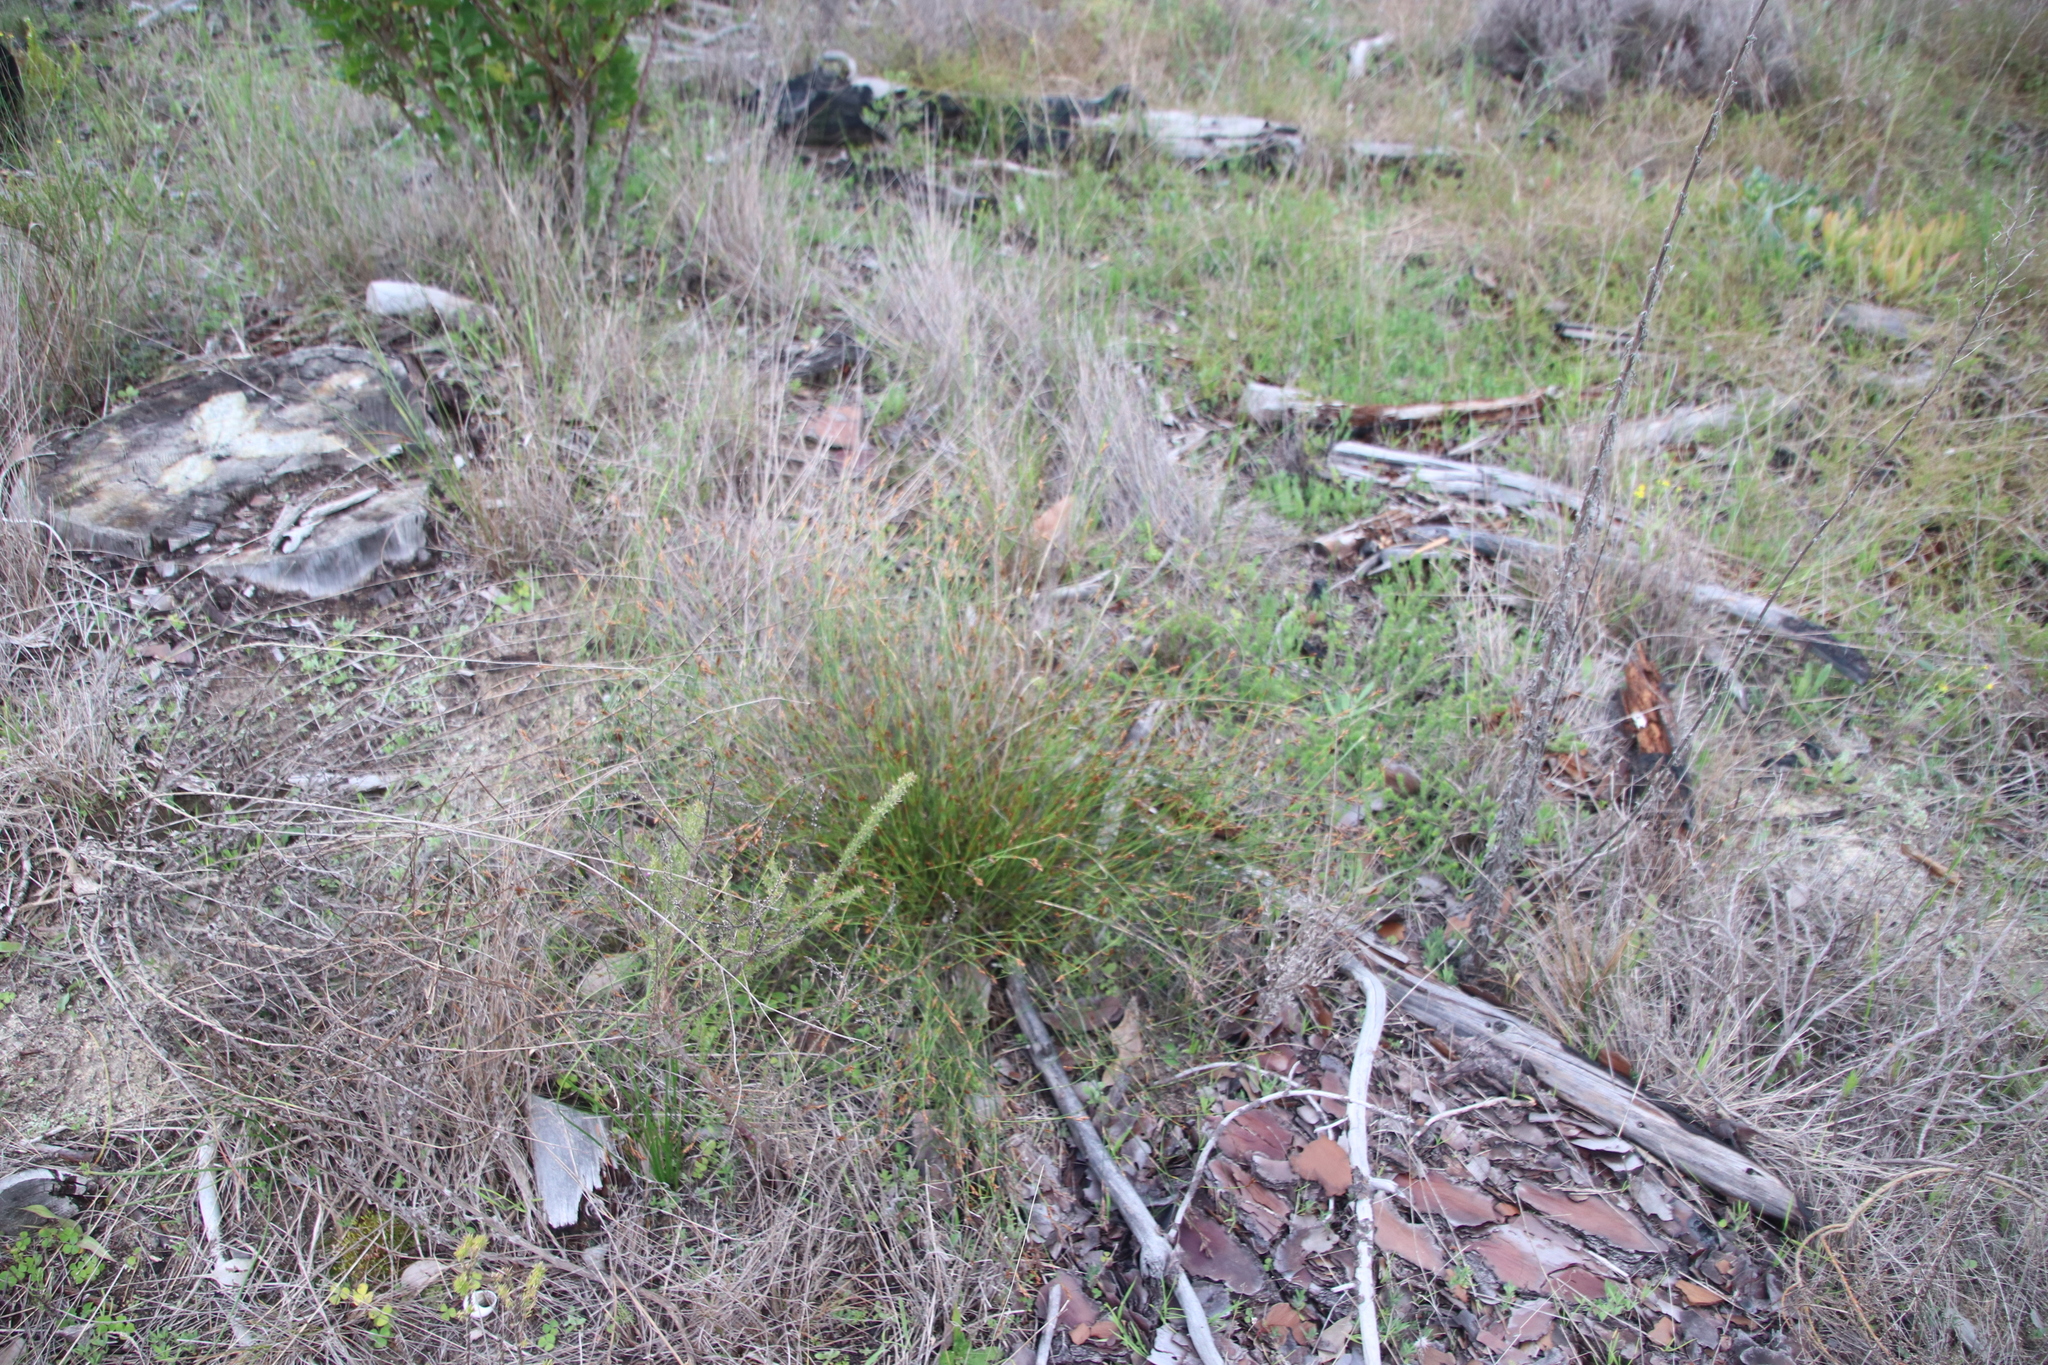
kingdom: Plantae
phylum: Tracheophyta
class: Liliopsida
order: Poales
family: Restionaceae
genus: Restio
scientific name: Restio capensis
